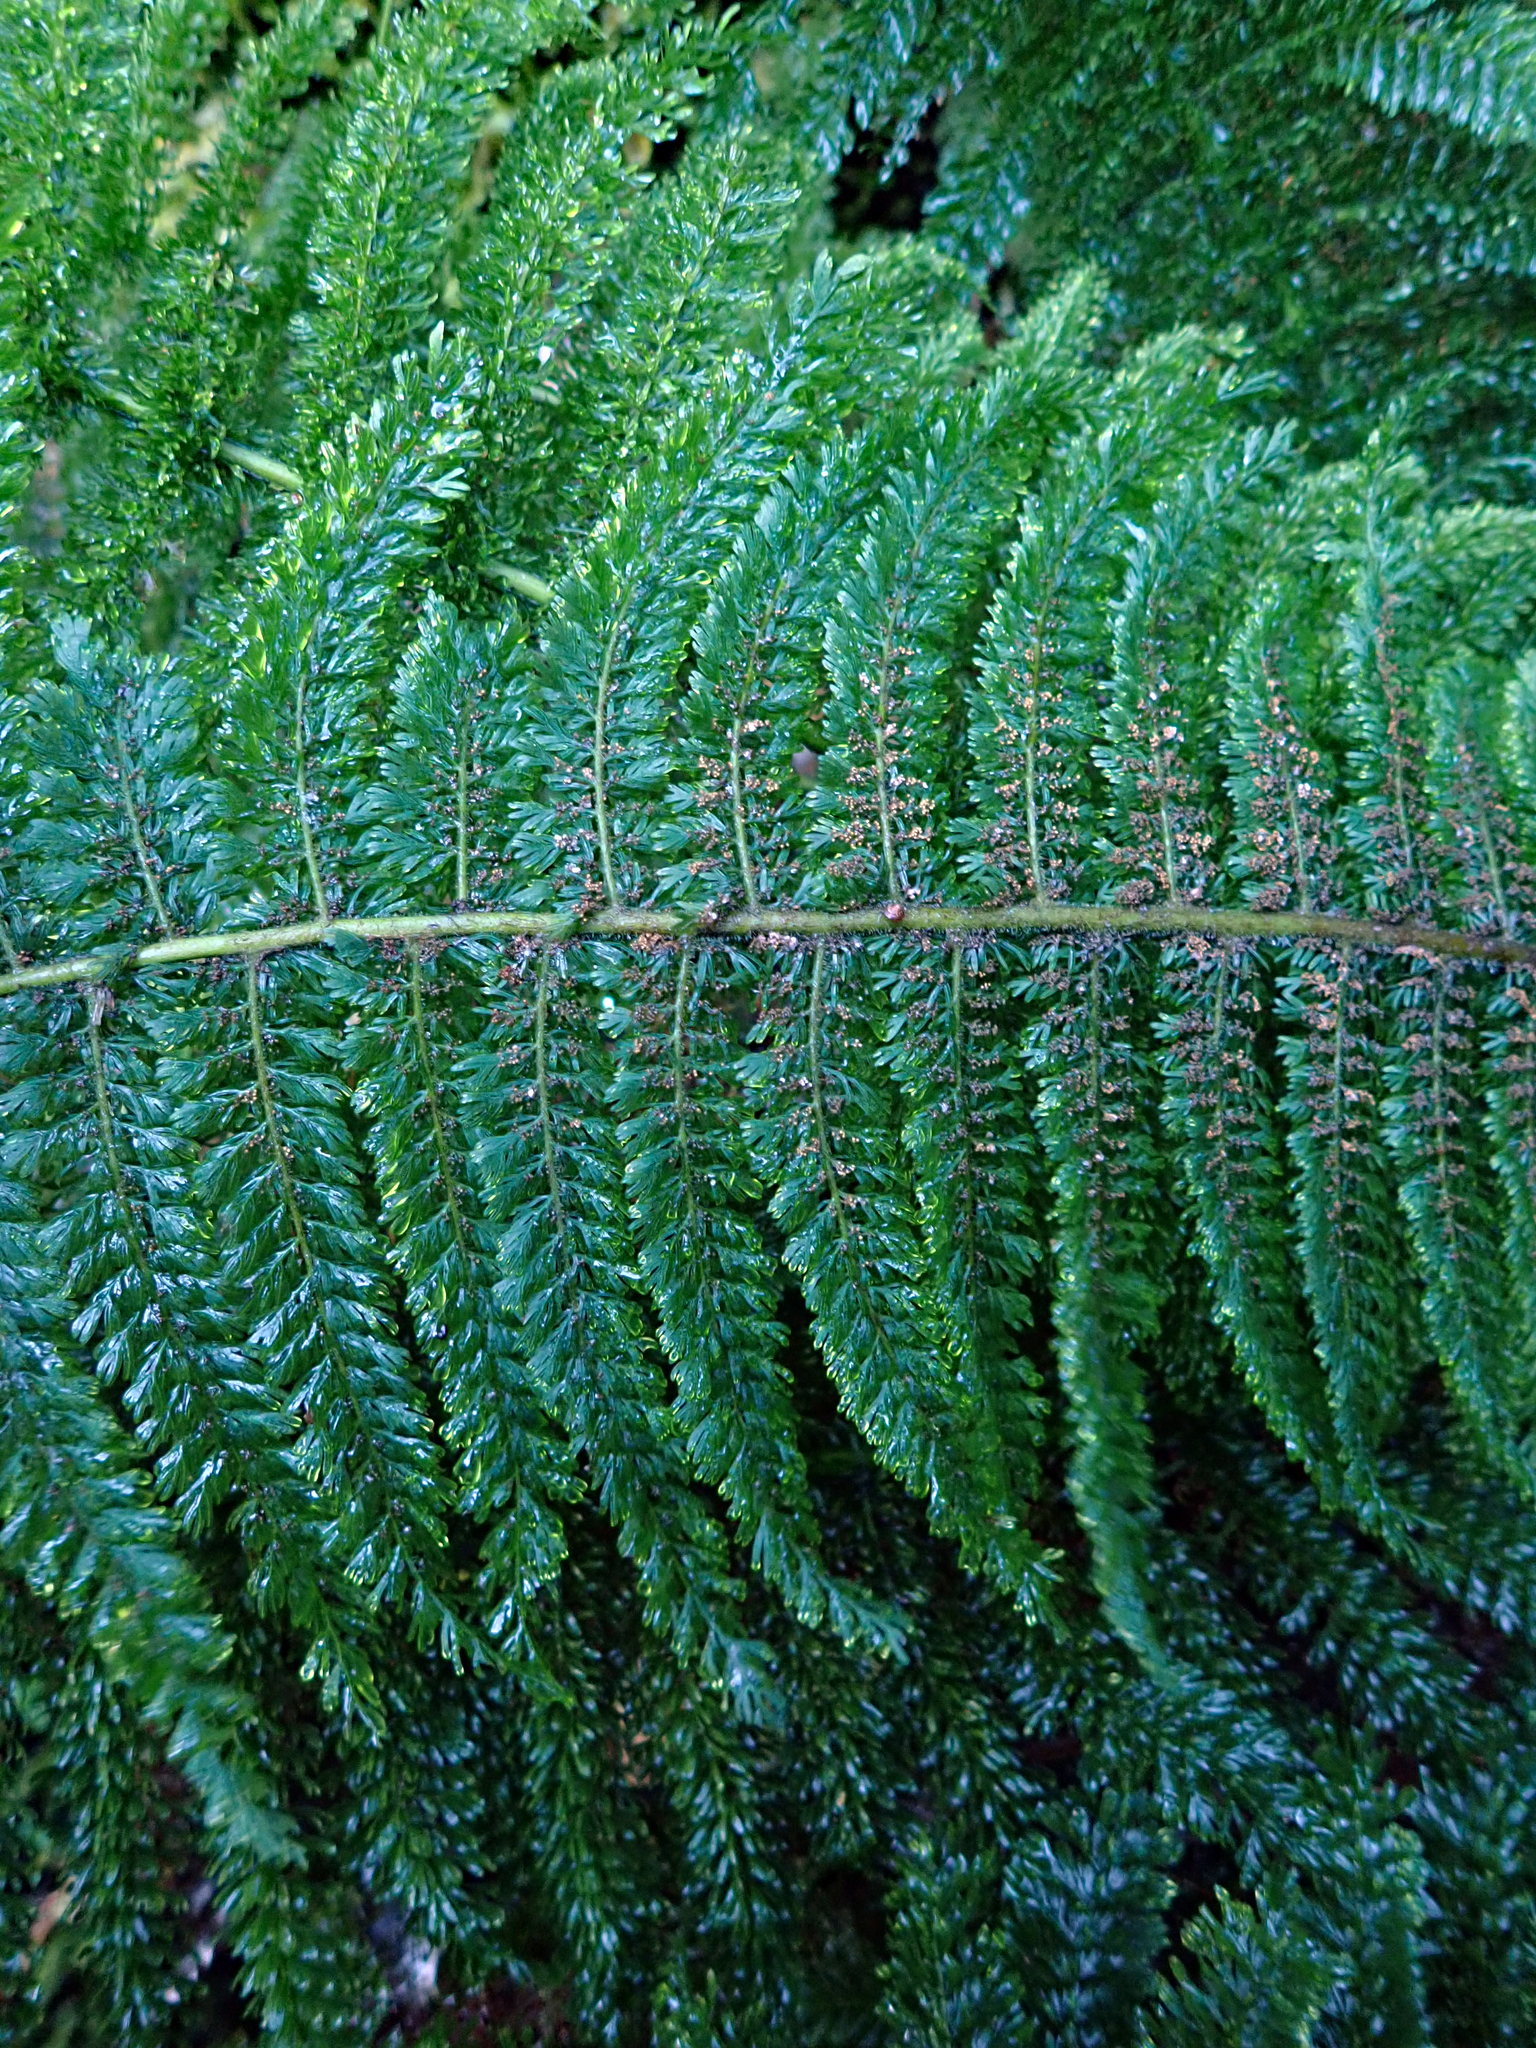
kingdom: Plantae
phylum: Tracheophyta
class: Polypodiopsida
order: Osmundales
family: Osmundaceae
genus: Leptopteris
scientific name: Leptopteris superba
